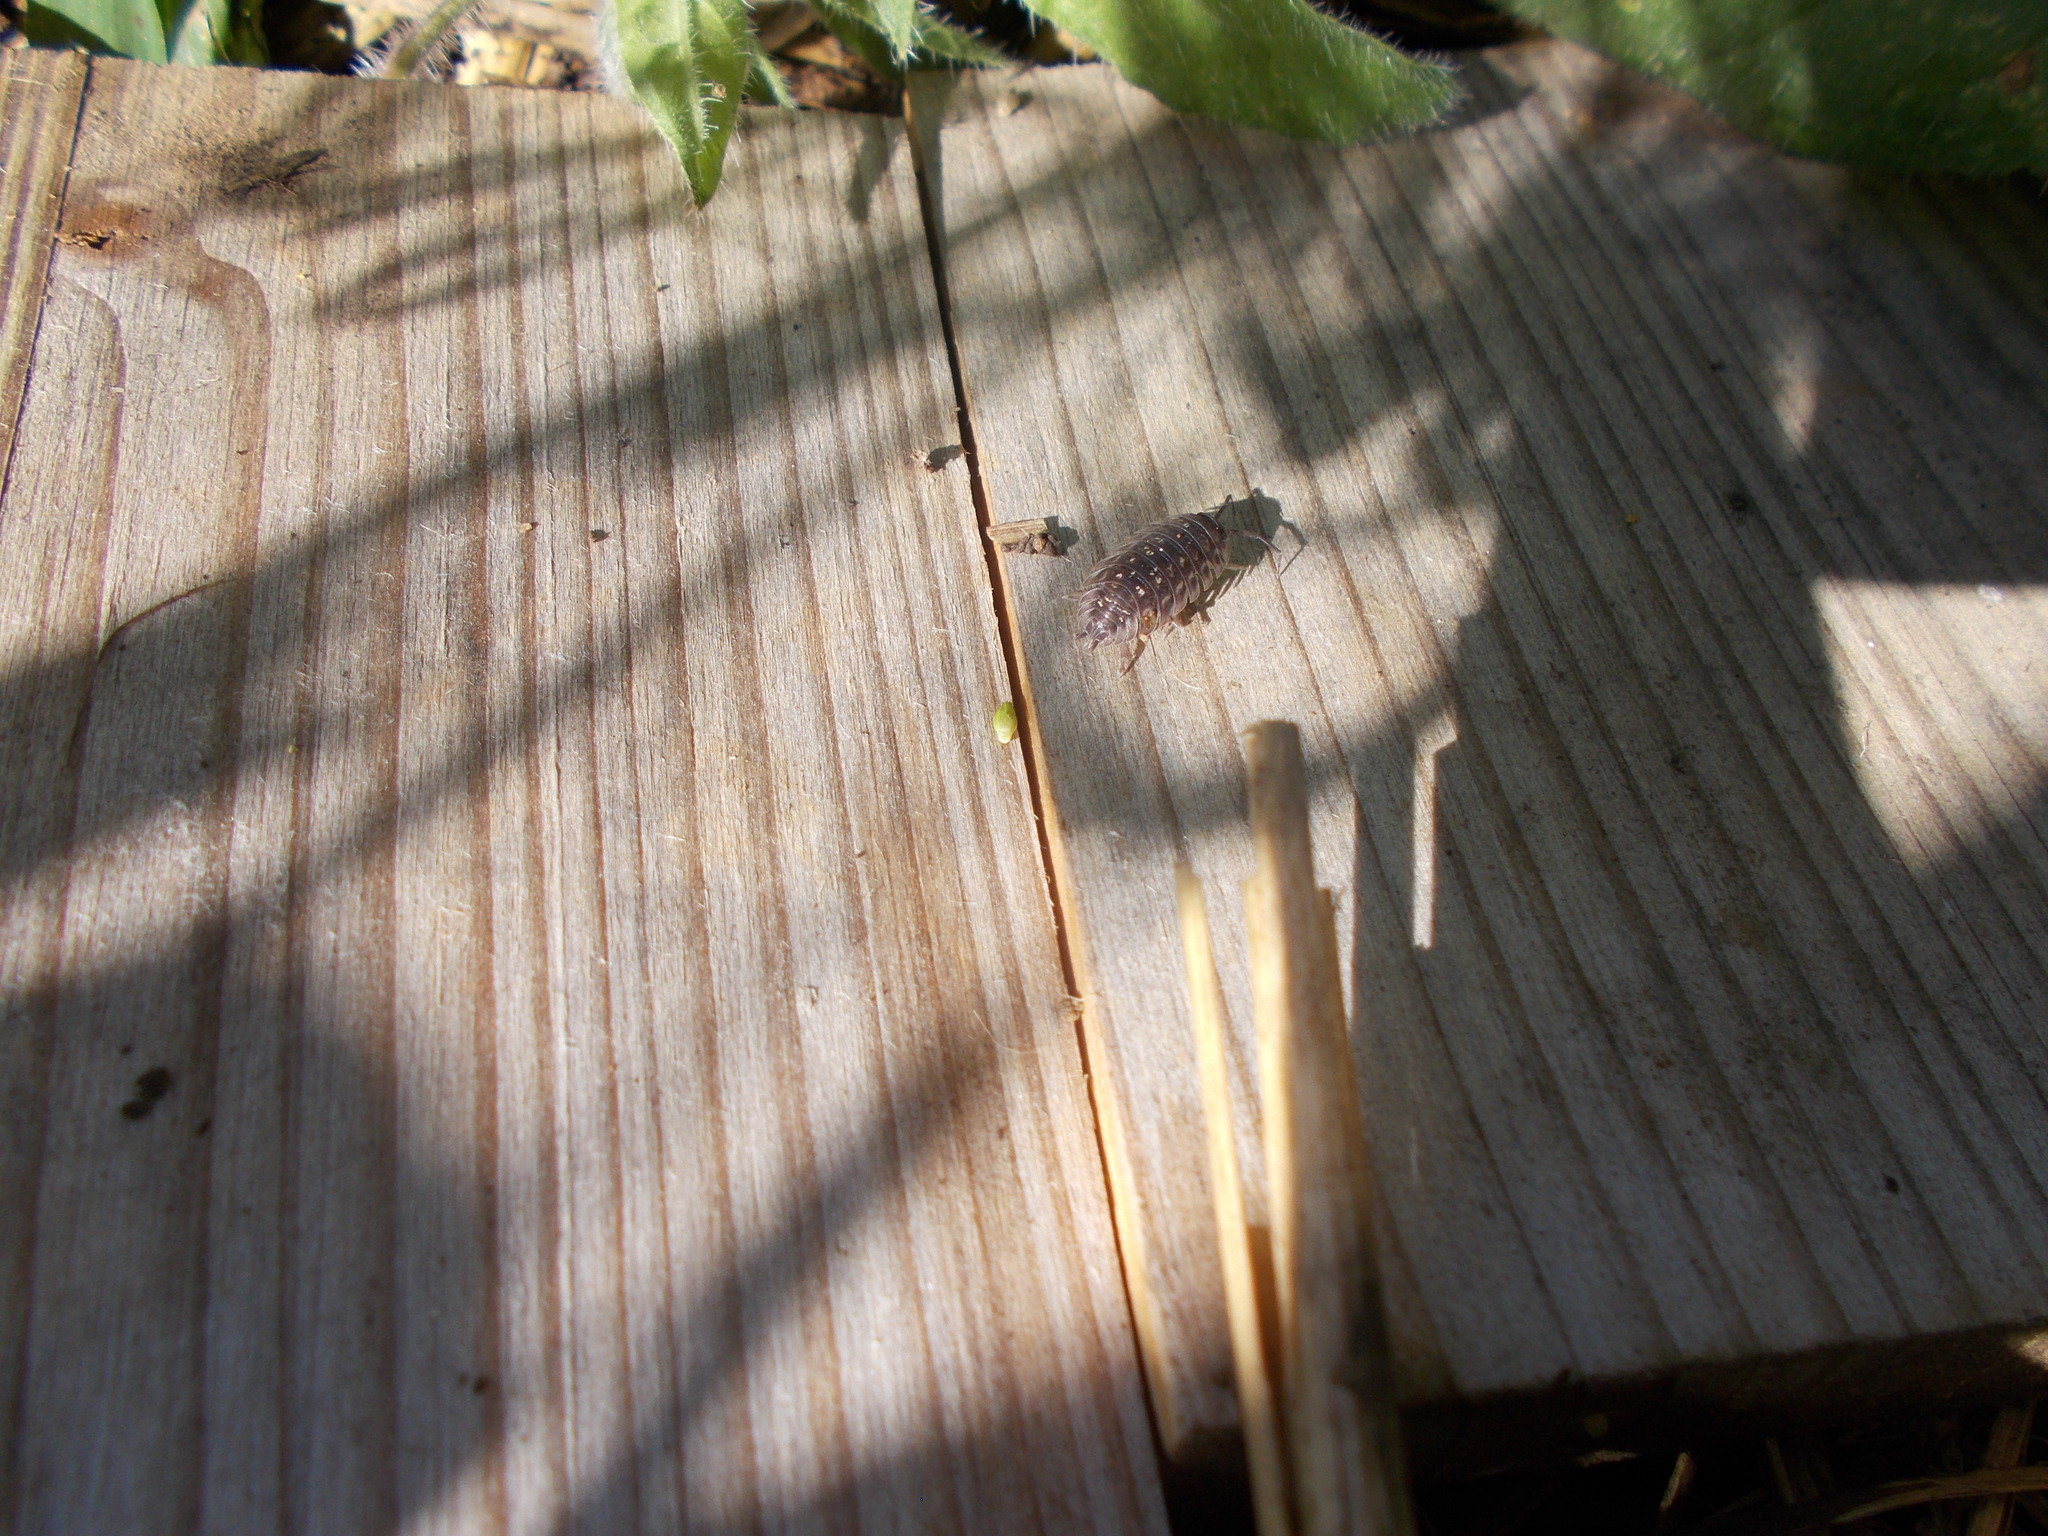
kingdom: Animalia
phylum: Arthropoda
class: Malacostraca
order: Isopoda
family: Oniscidae
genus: Oniscus
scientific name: Oniscus asellus
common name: Common shiny woodlouse
